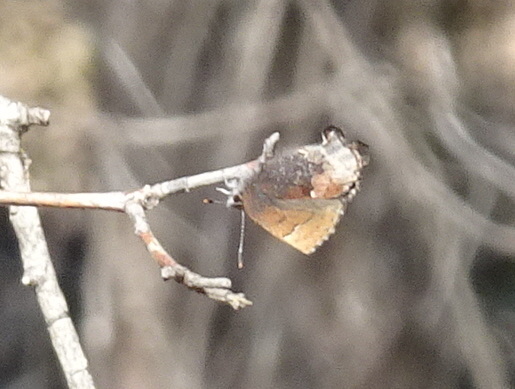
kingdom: Animalia
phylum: Arthropoda
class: Insecta
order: Lepidoptera
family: Lycaenidae
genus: Incisalia
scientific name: Incisalia henrici
